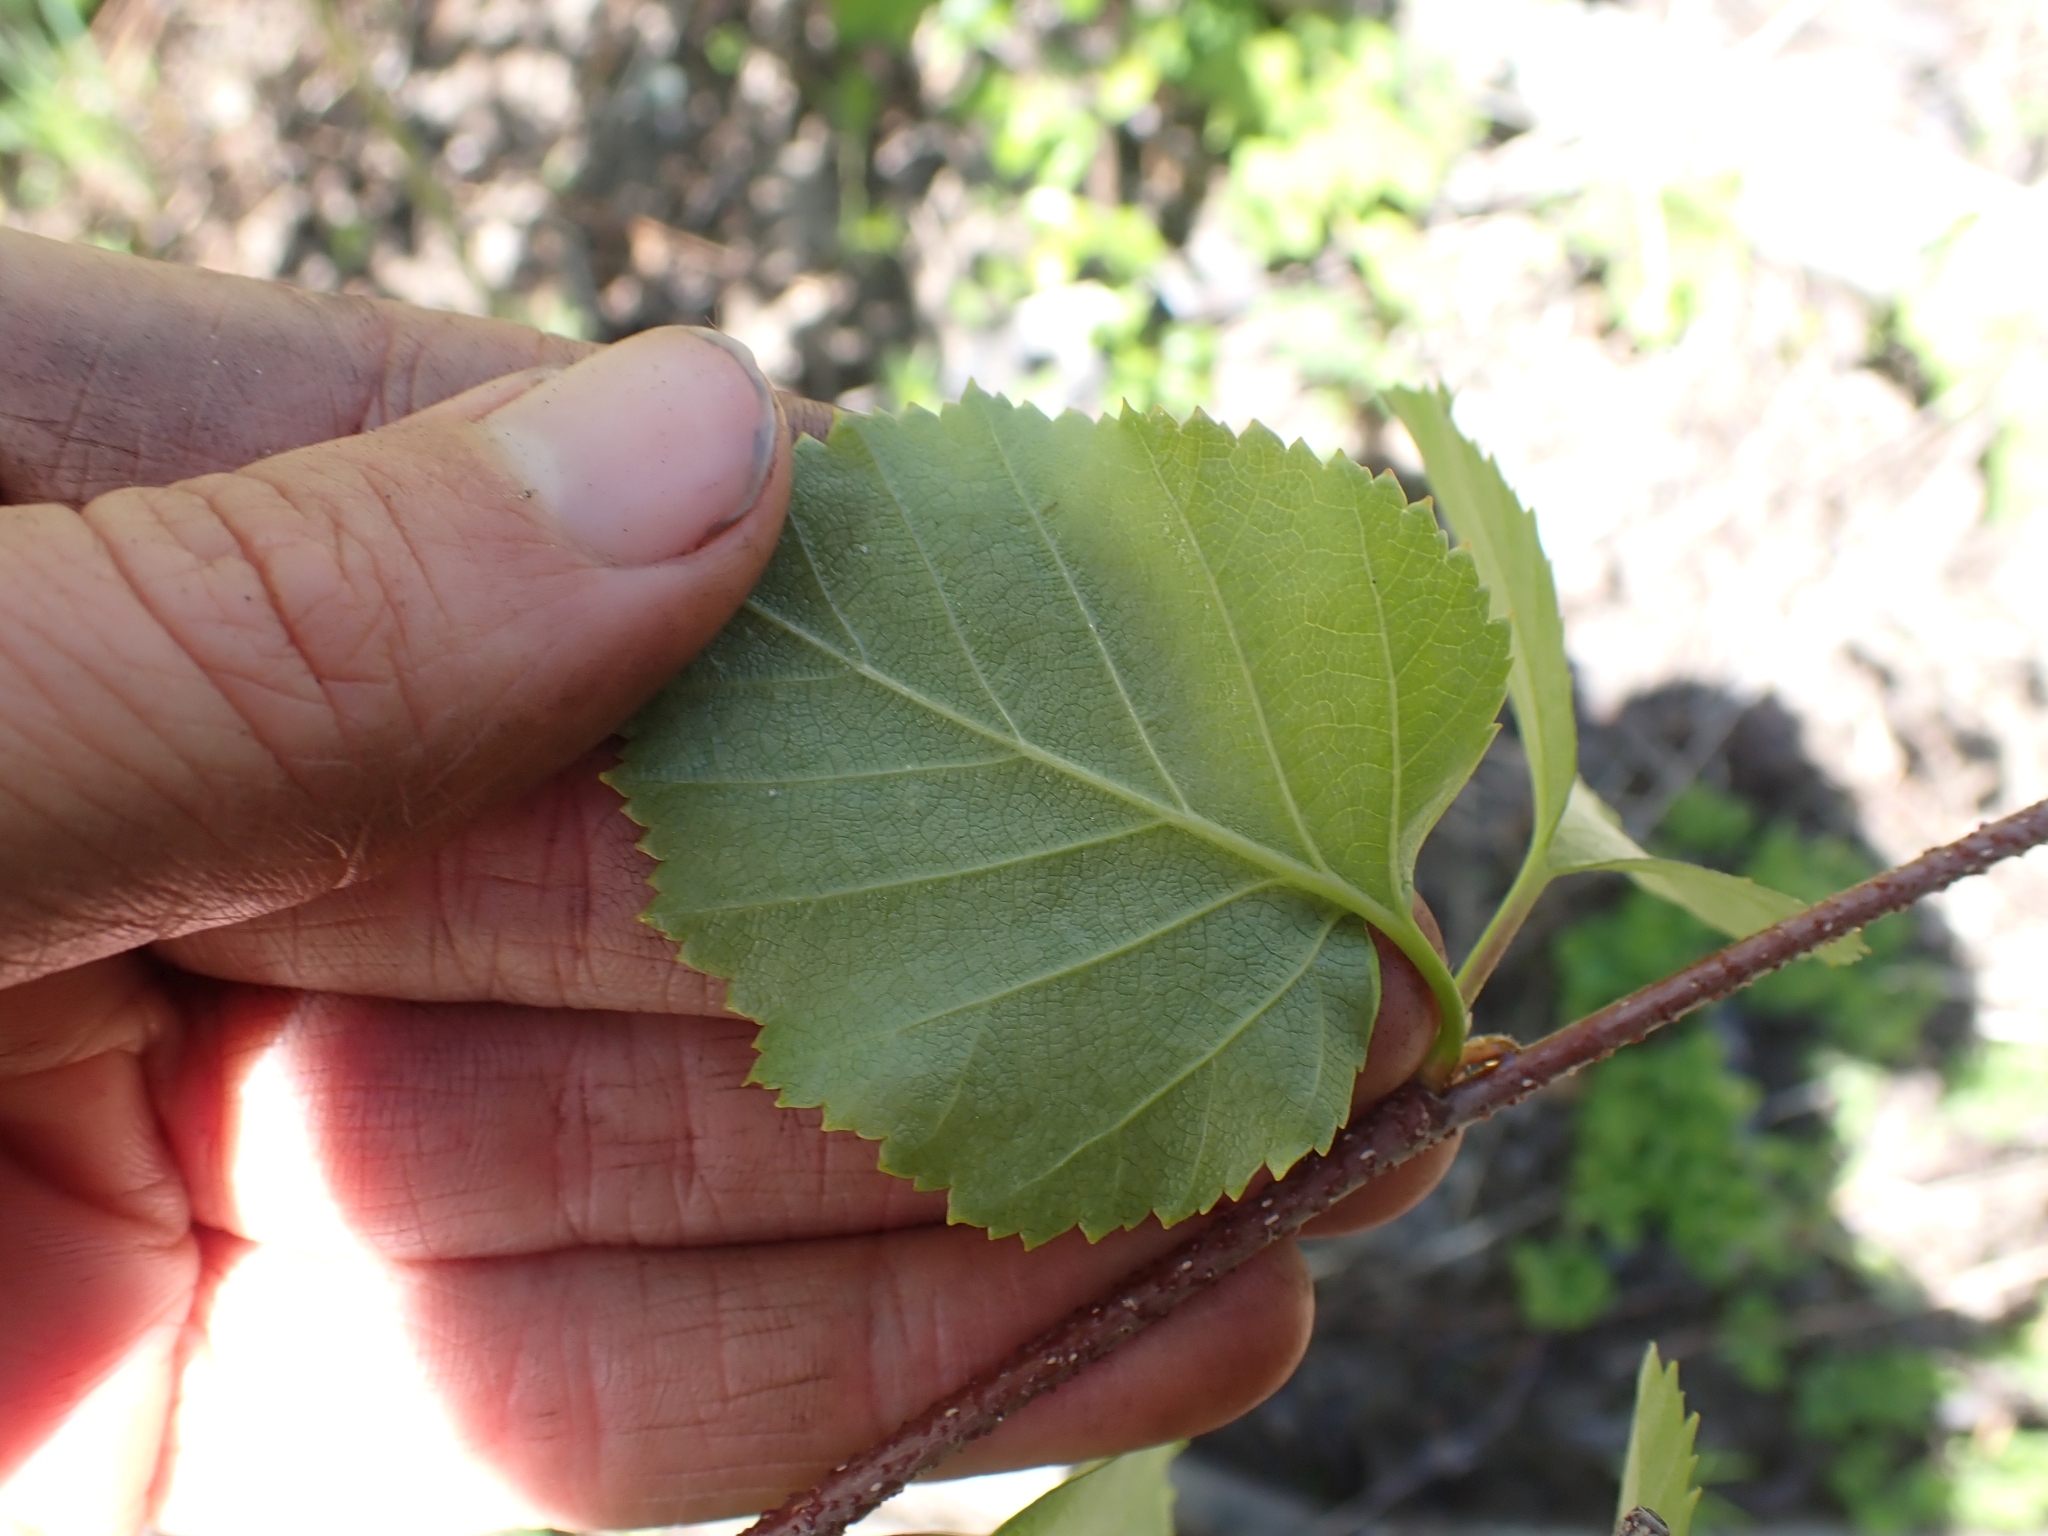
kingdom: Plantae
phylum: Tracheophyta
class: Magnoliopsida
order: Fagales
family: Betulaceae
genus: Betula
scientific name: Betula occidentalis
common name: River birch
